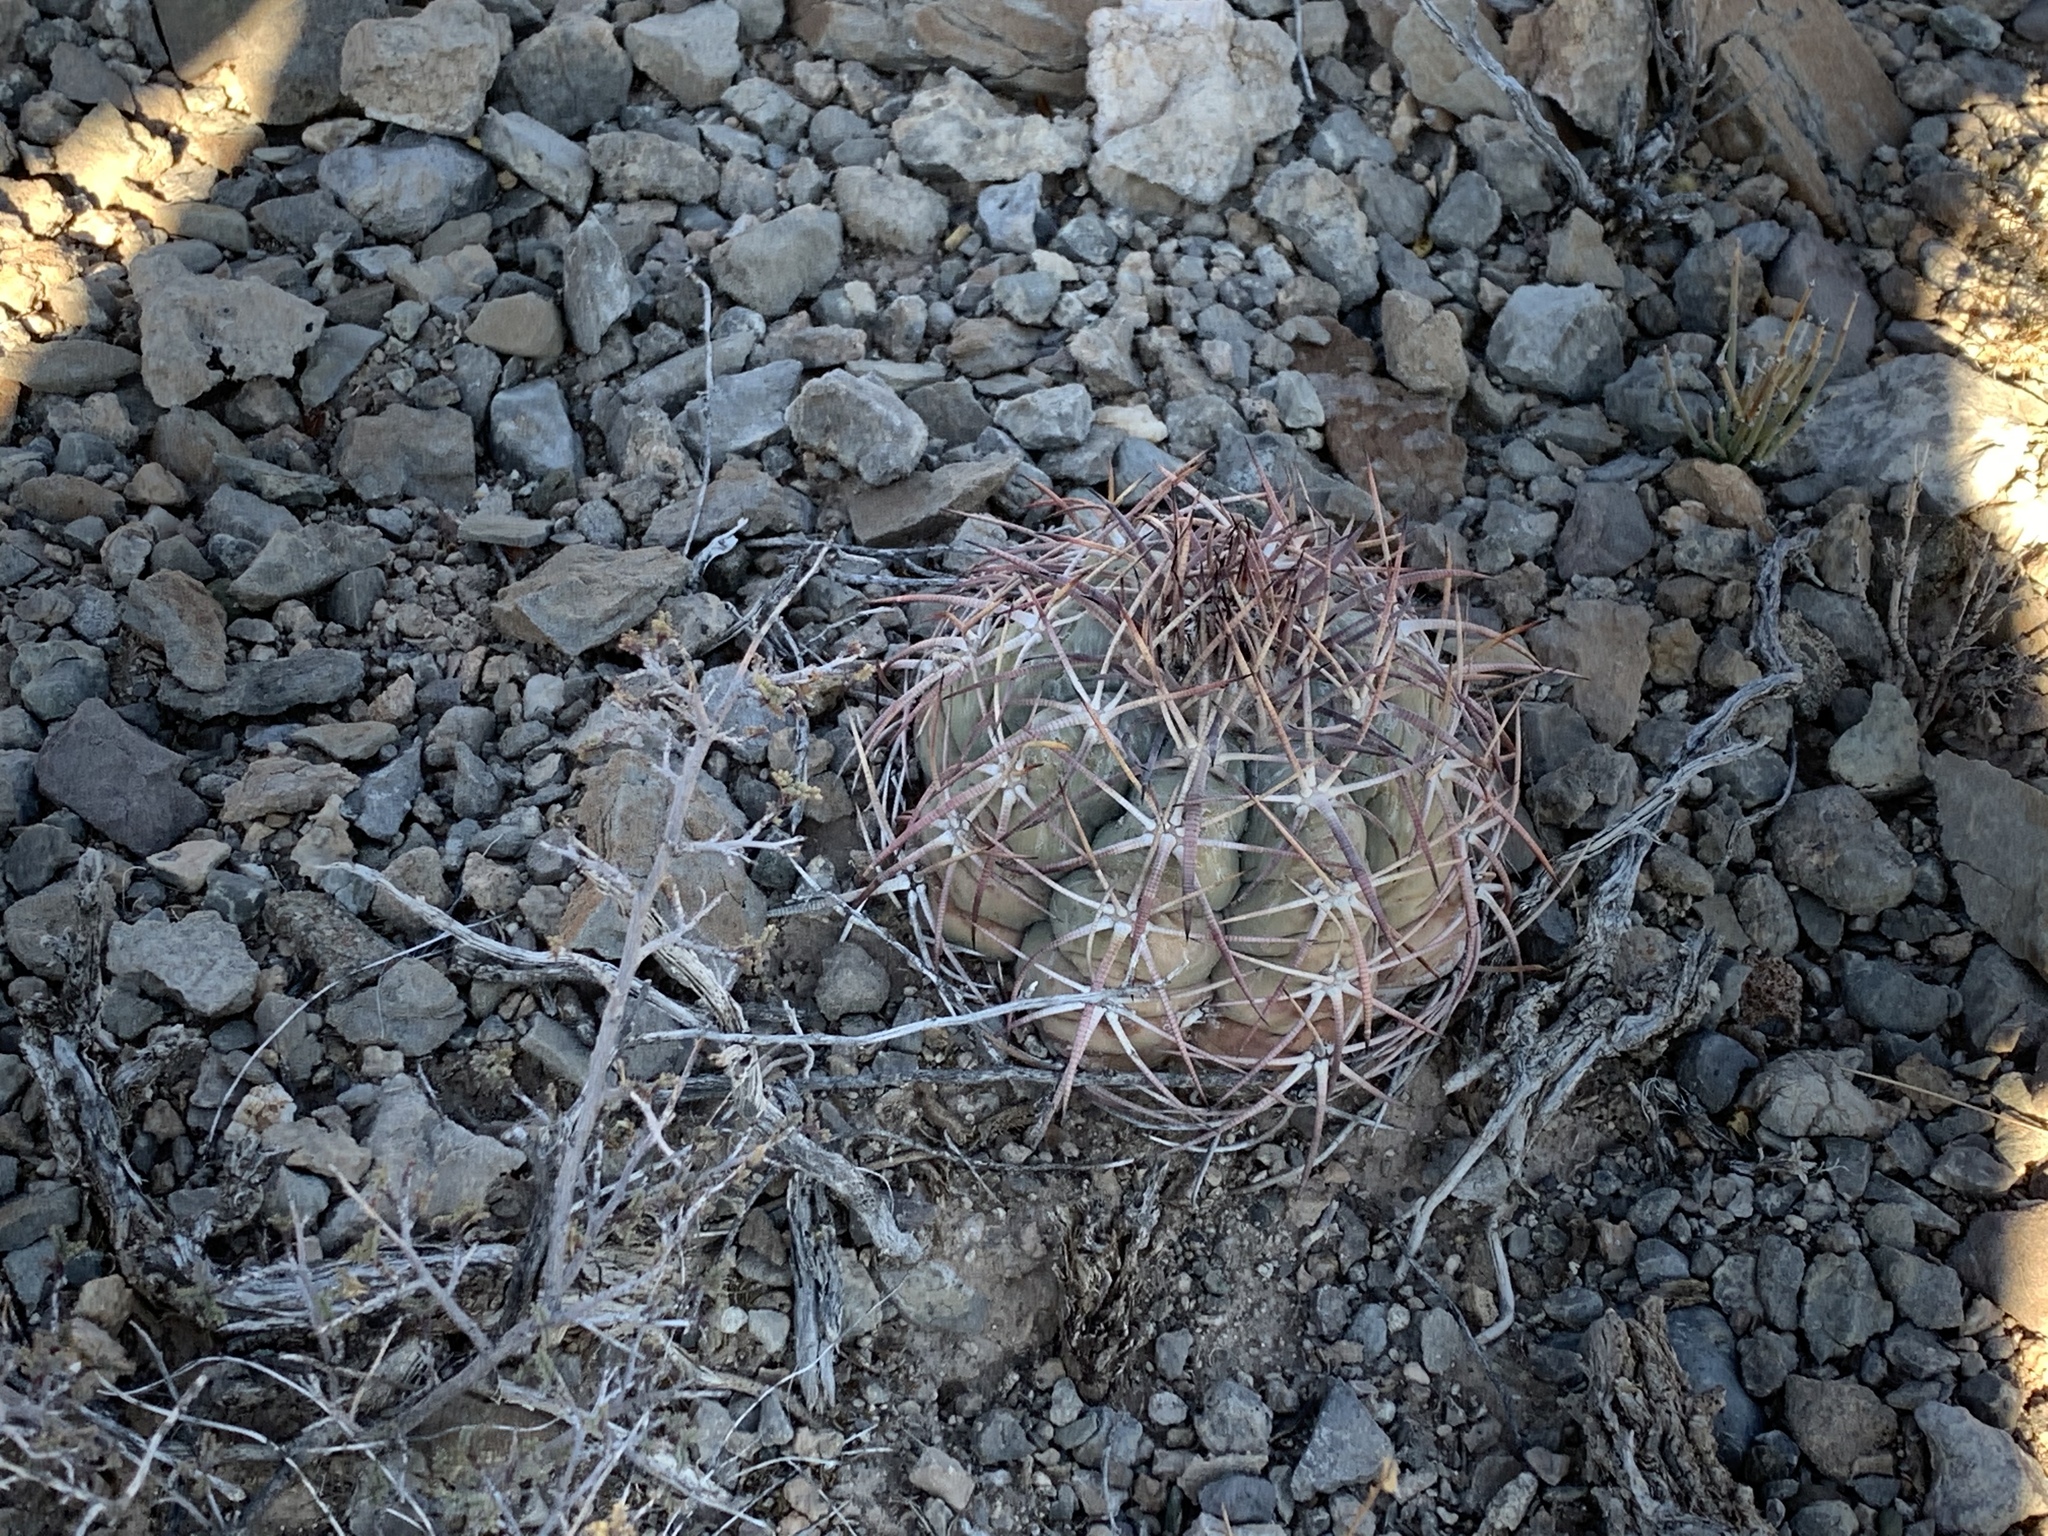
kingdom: Plantae
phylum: Tracheophyta
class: Magnoliopsida
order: Caryophyllales
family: Cactaceae
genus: Echinocactus
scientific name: Echinocactus horizonthalonius
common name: Devilshead
